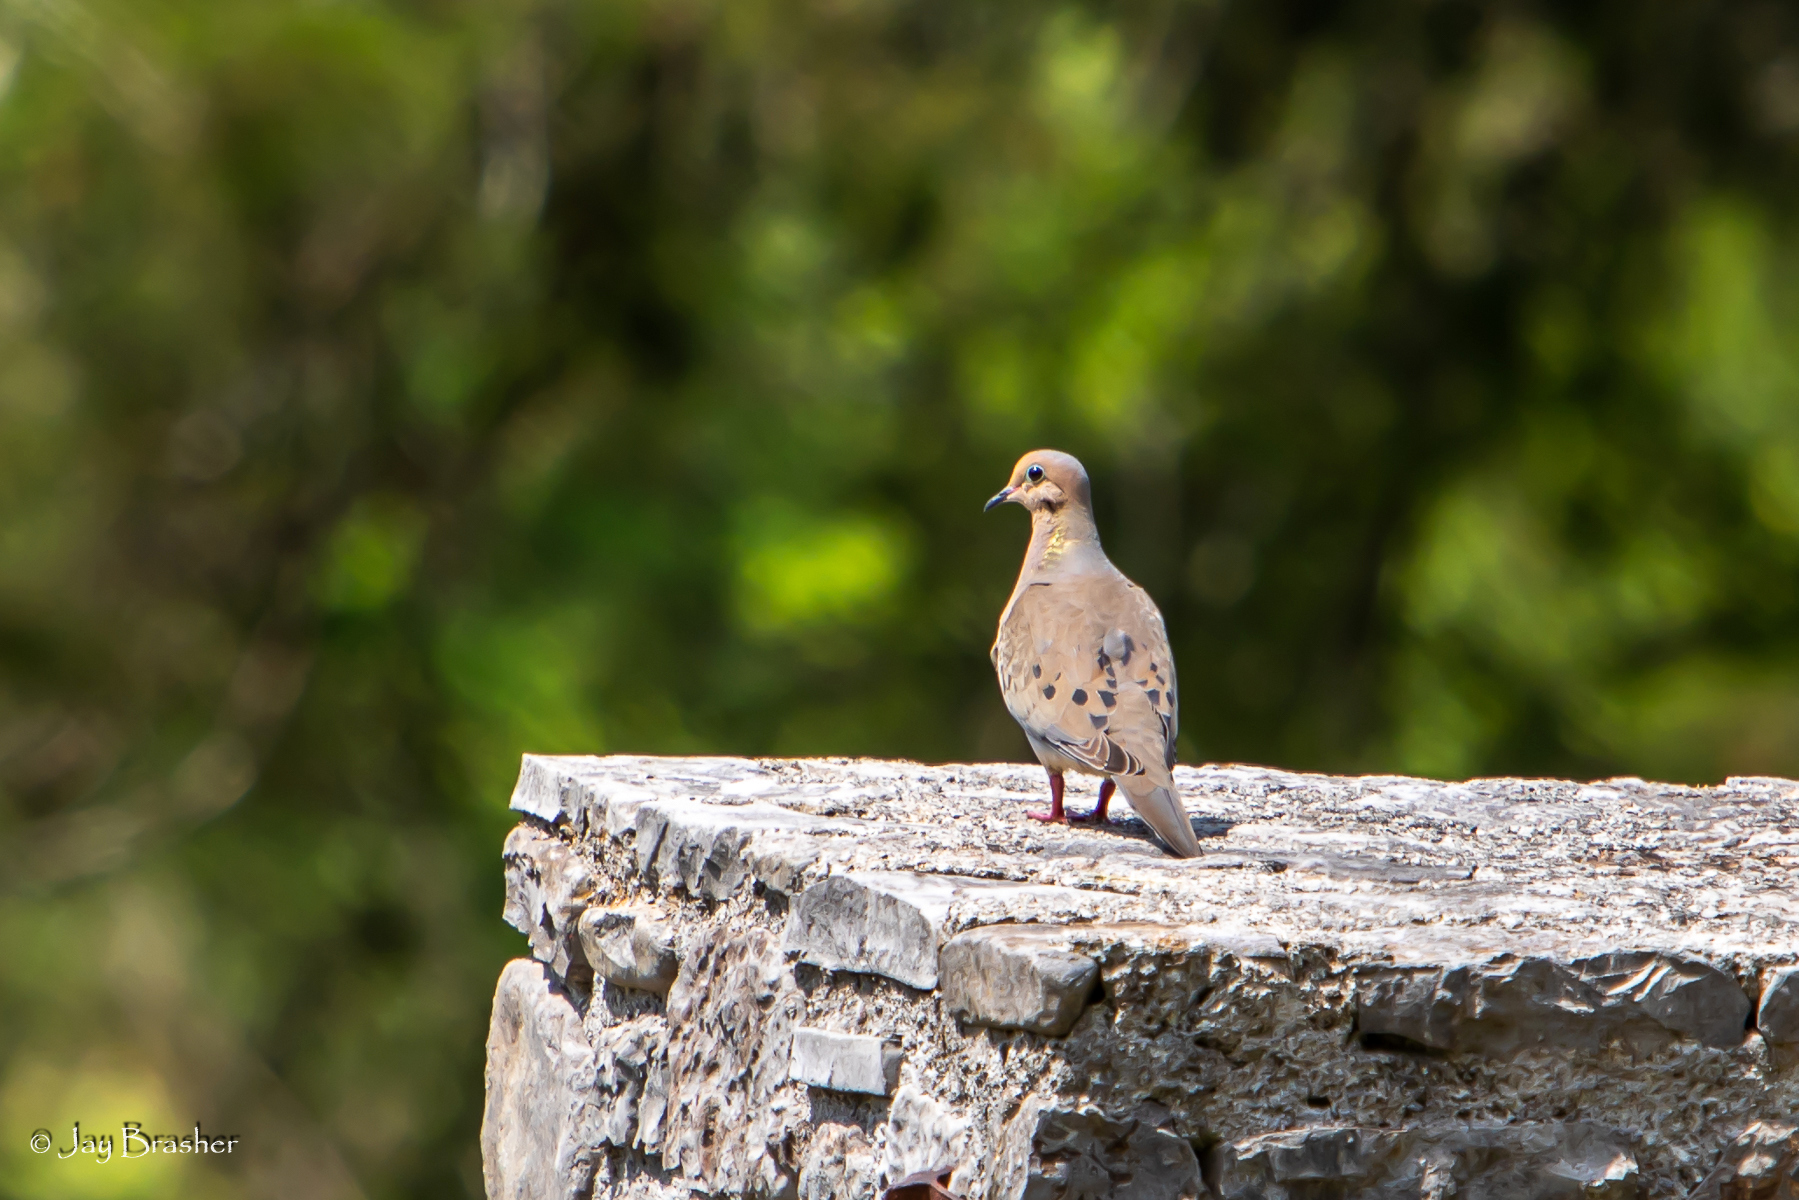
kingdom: Animalia
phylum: Chordata
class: Aves
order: Columbiformes
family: Columbidae
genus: Zenaida
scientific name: Zenaida macroura
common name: Mourning dove
